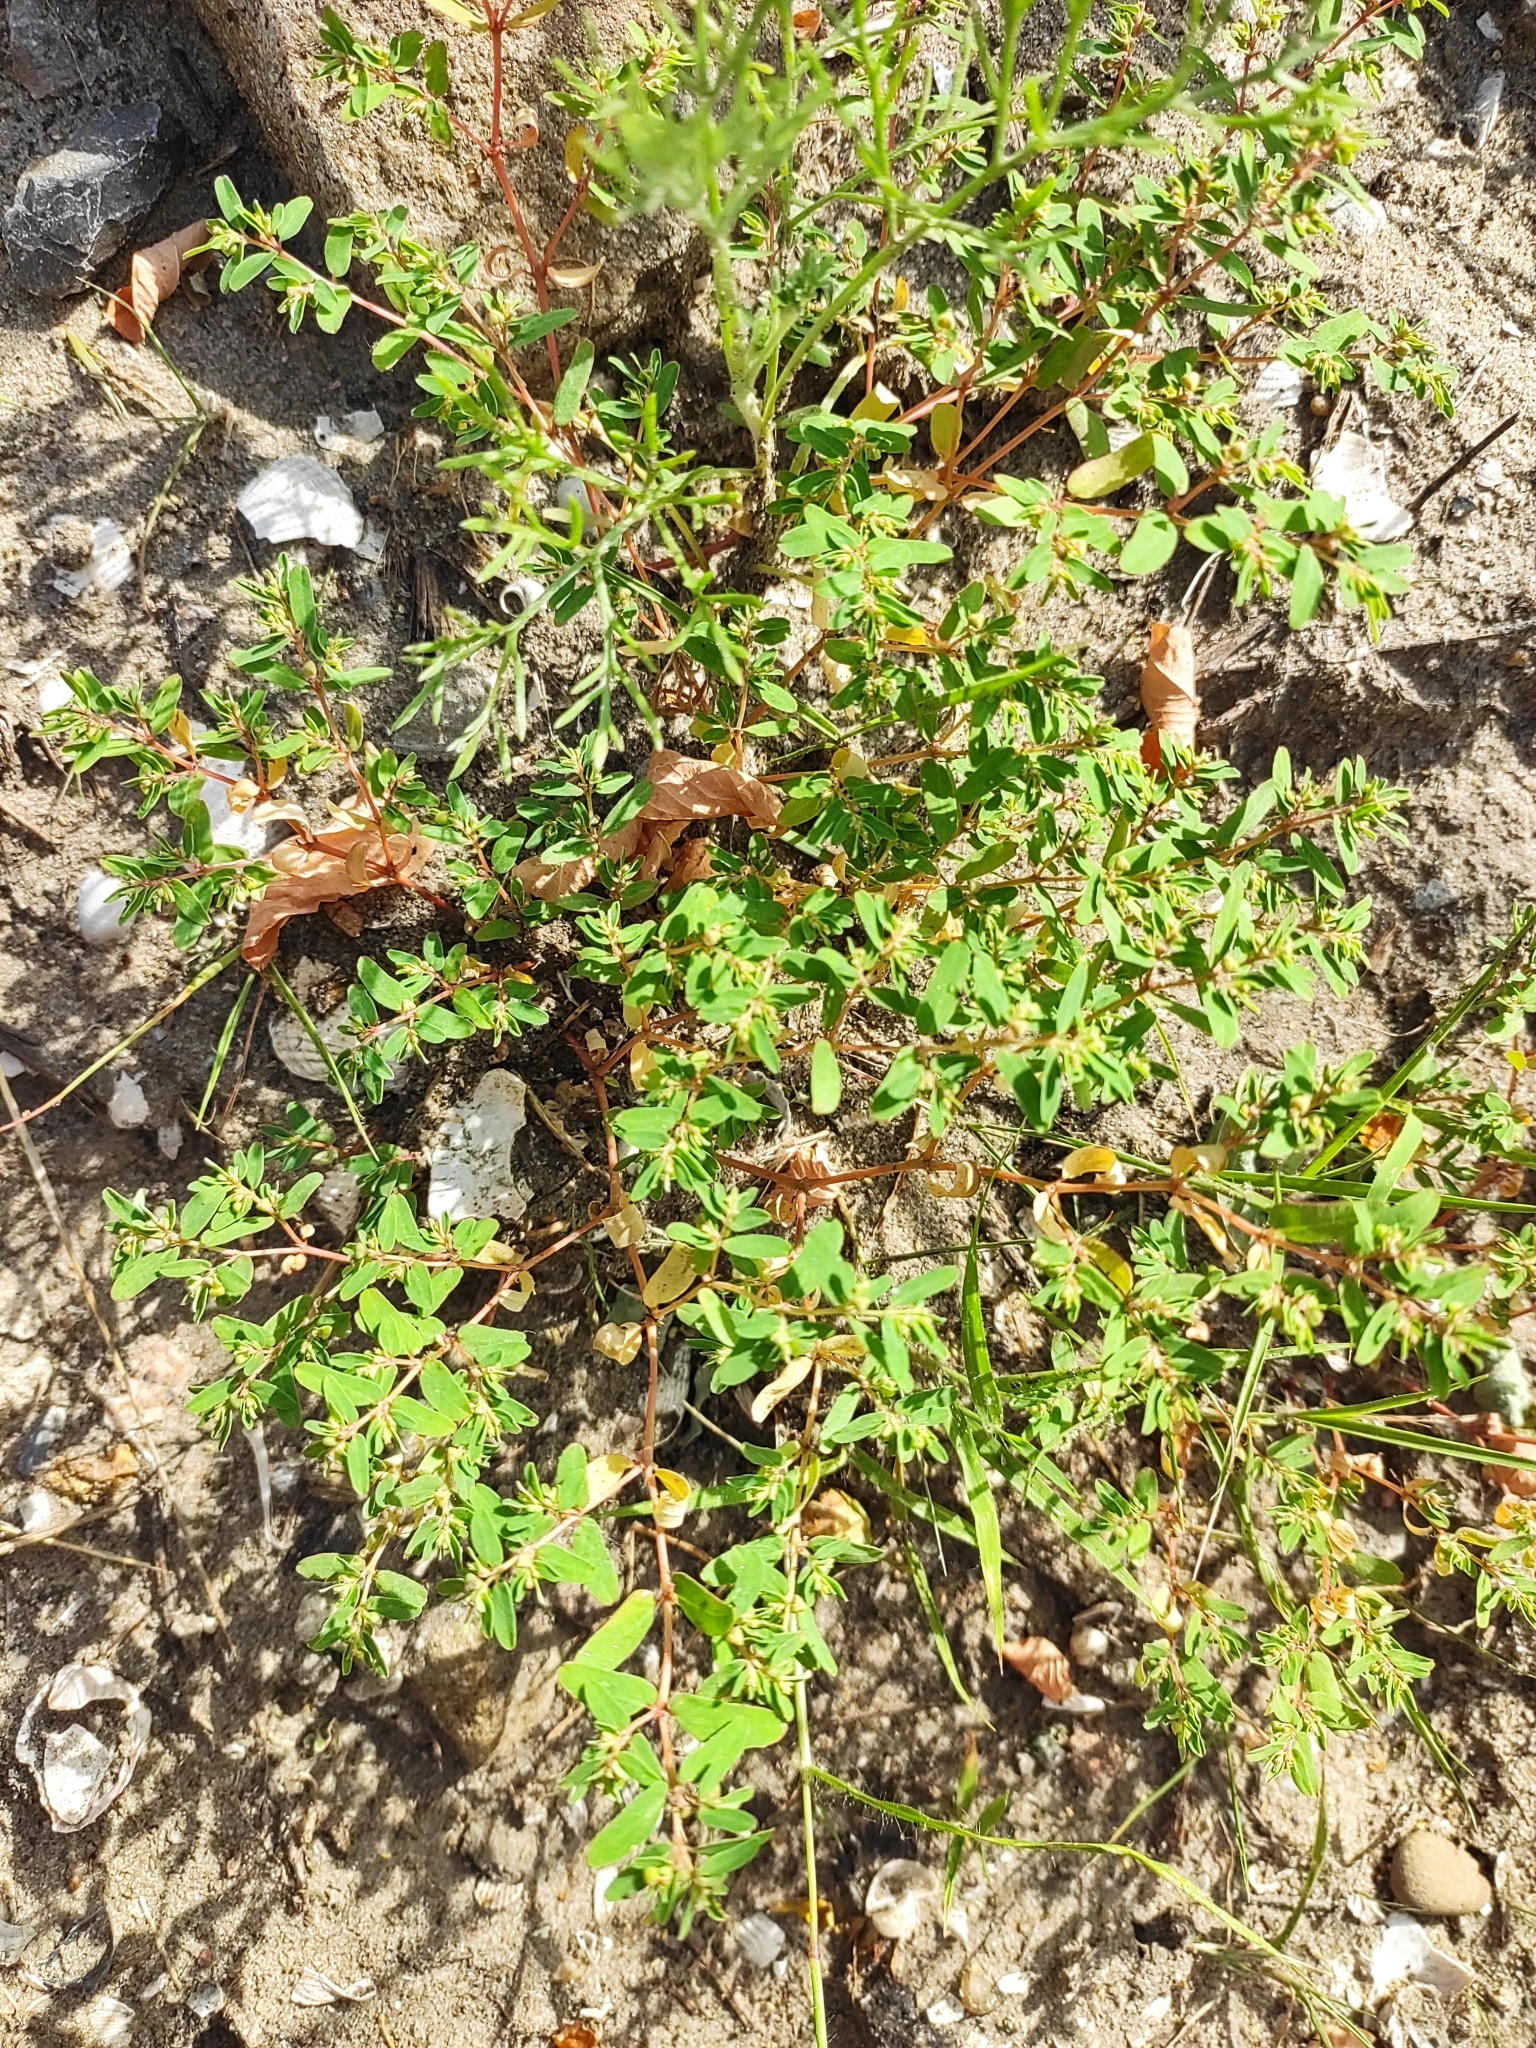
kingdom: Plantae
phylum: Tracheophyta
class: Magnoliopsida
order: Malpighiales
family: Euphorbiaceae
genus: Euphorbia
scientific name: Euphorbia glyptosperma
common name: Corrugate-seeded spurge
